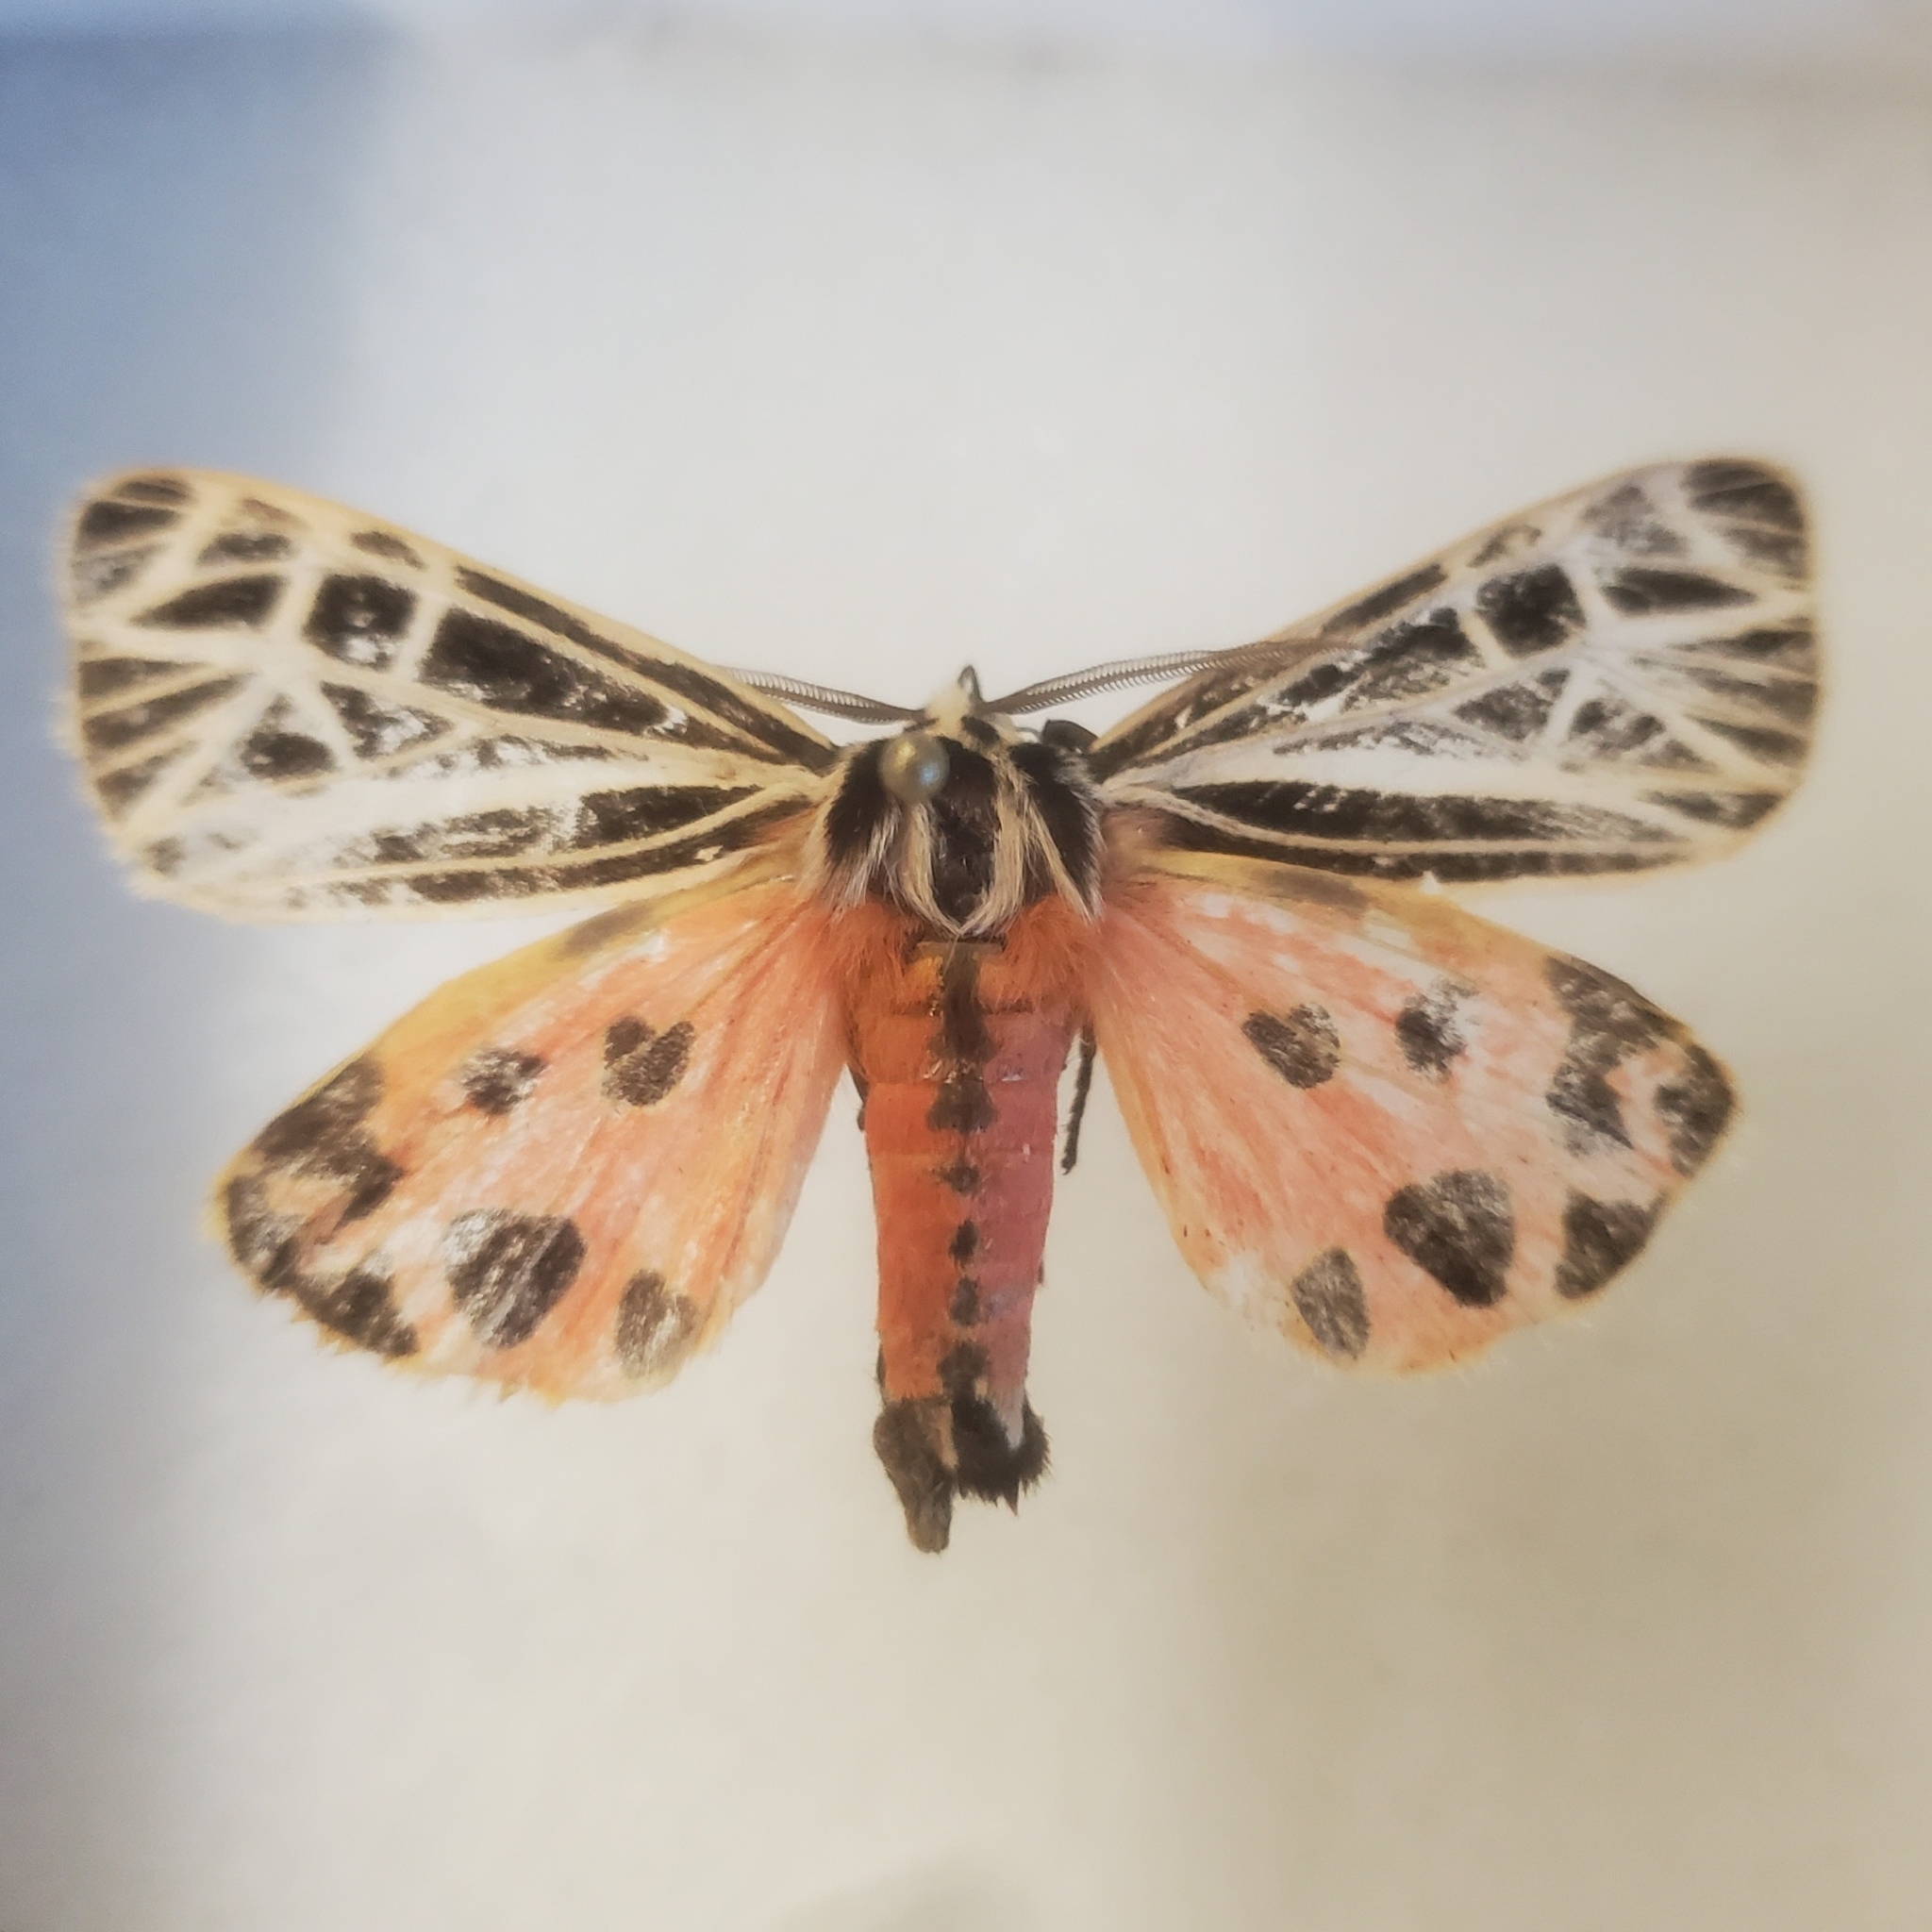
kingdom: Animalia
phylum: Arthropoda
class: Insecta
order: Lepidoptera
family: Erebidae
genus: Grammia
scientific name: Grammia virgo
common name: Virgin tiger moth
